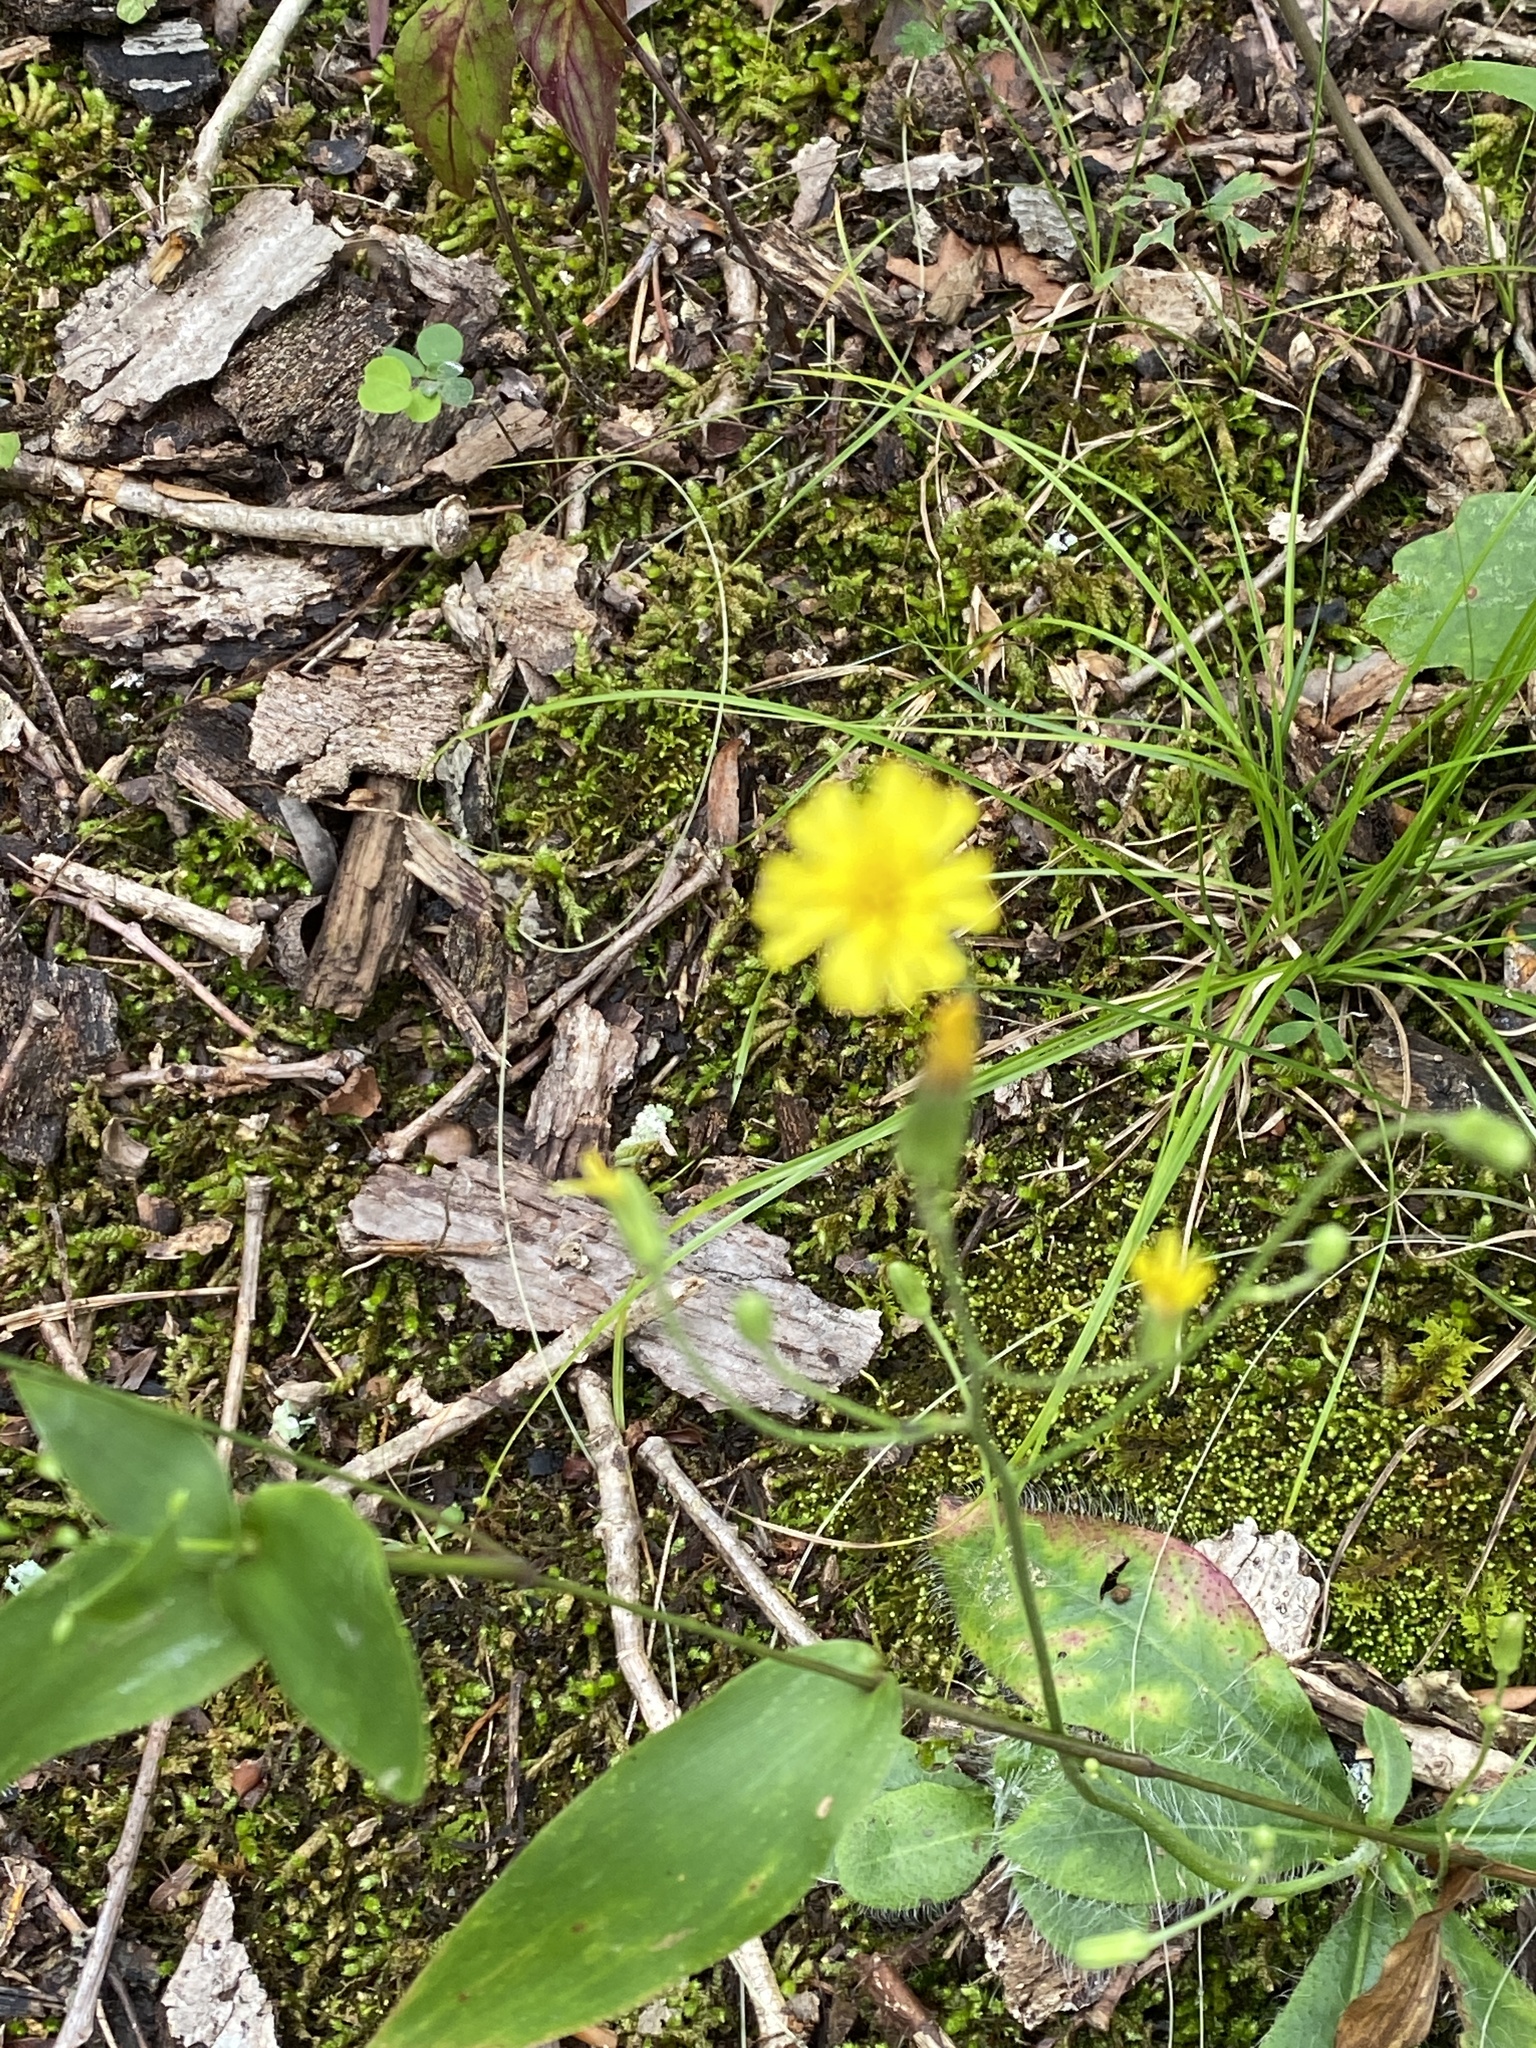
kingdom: Plantae
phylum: Tracheophyta
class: Magnoliopsida
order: Asterales
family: Asteraceae
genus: Hieracium
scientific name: Hieracium venosum
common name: Rattlesnake hawkweed
